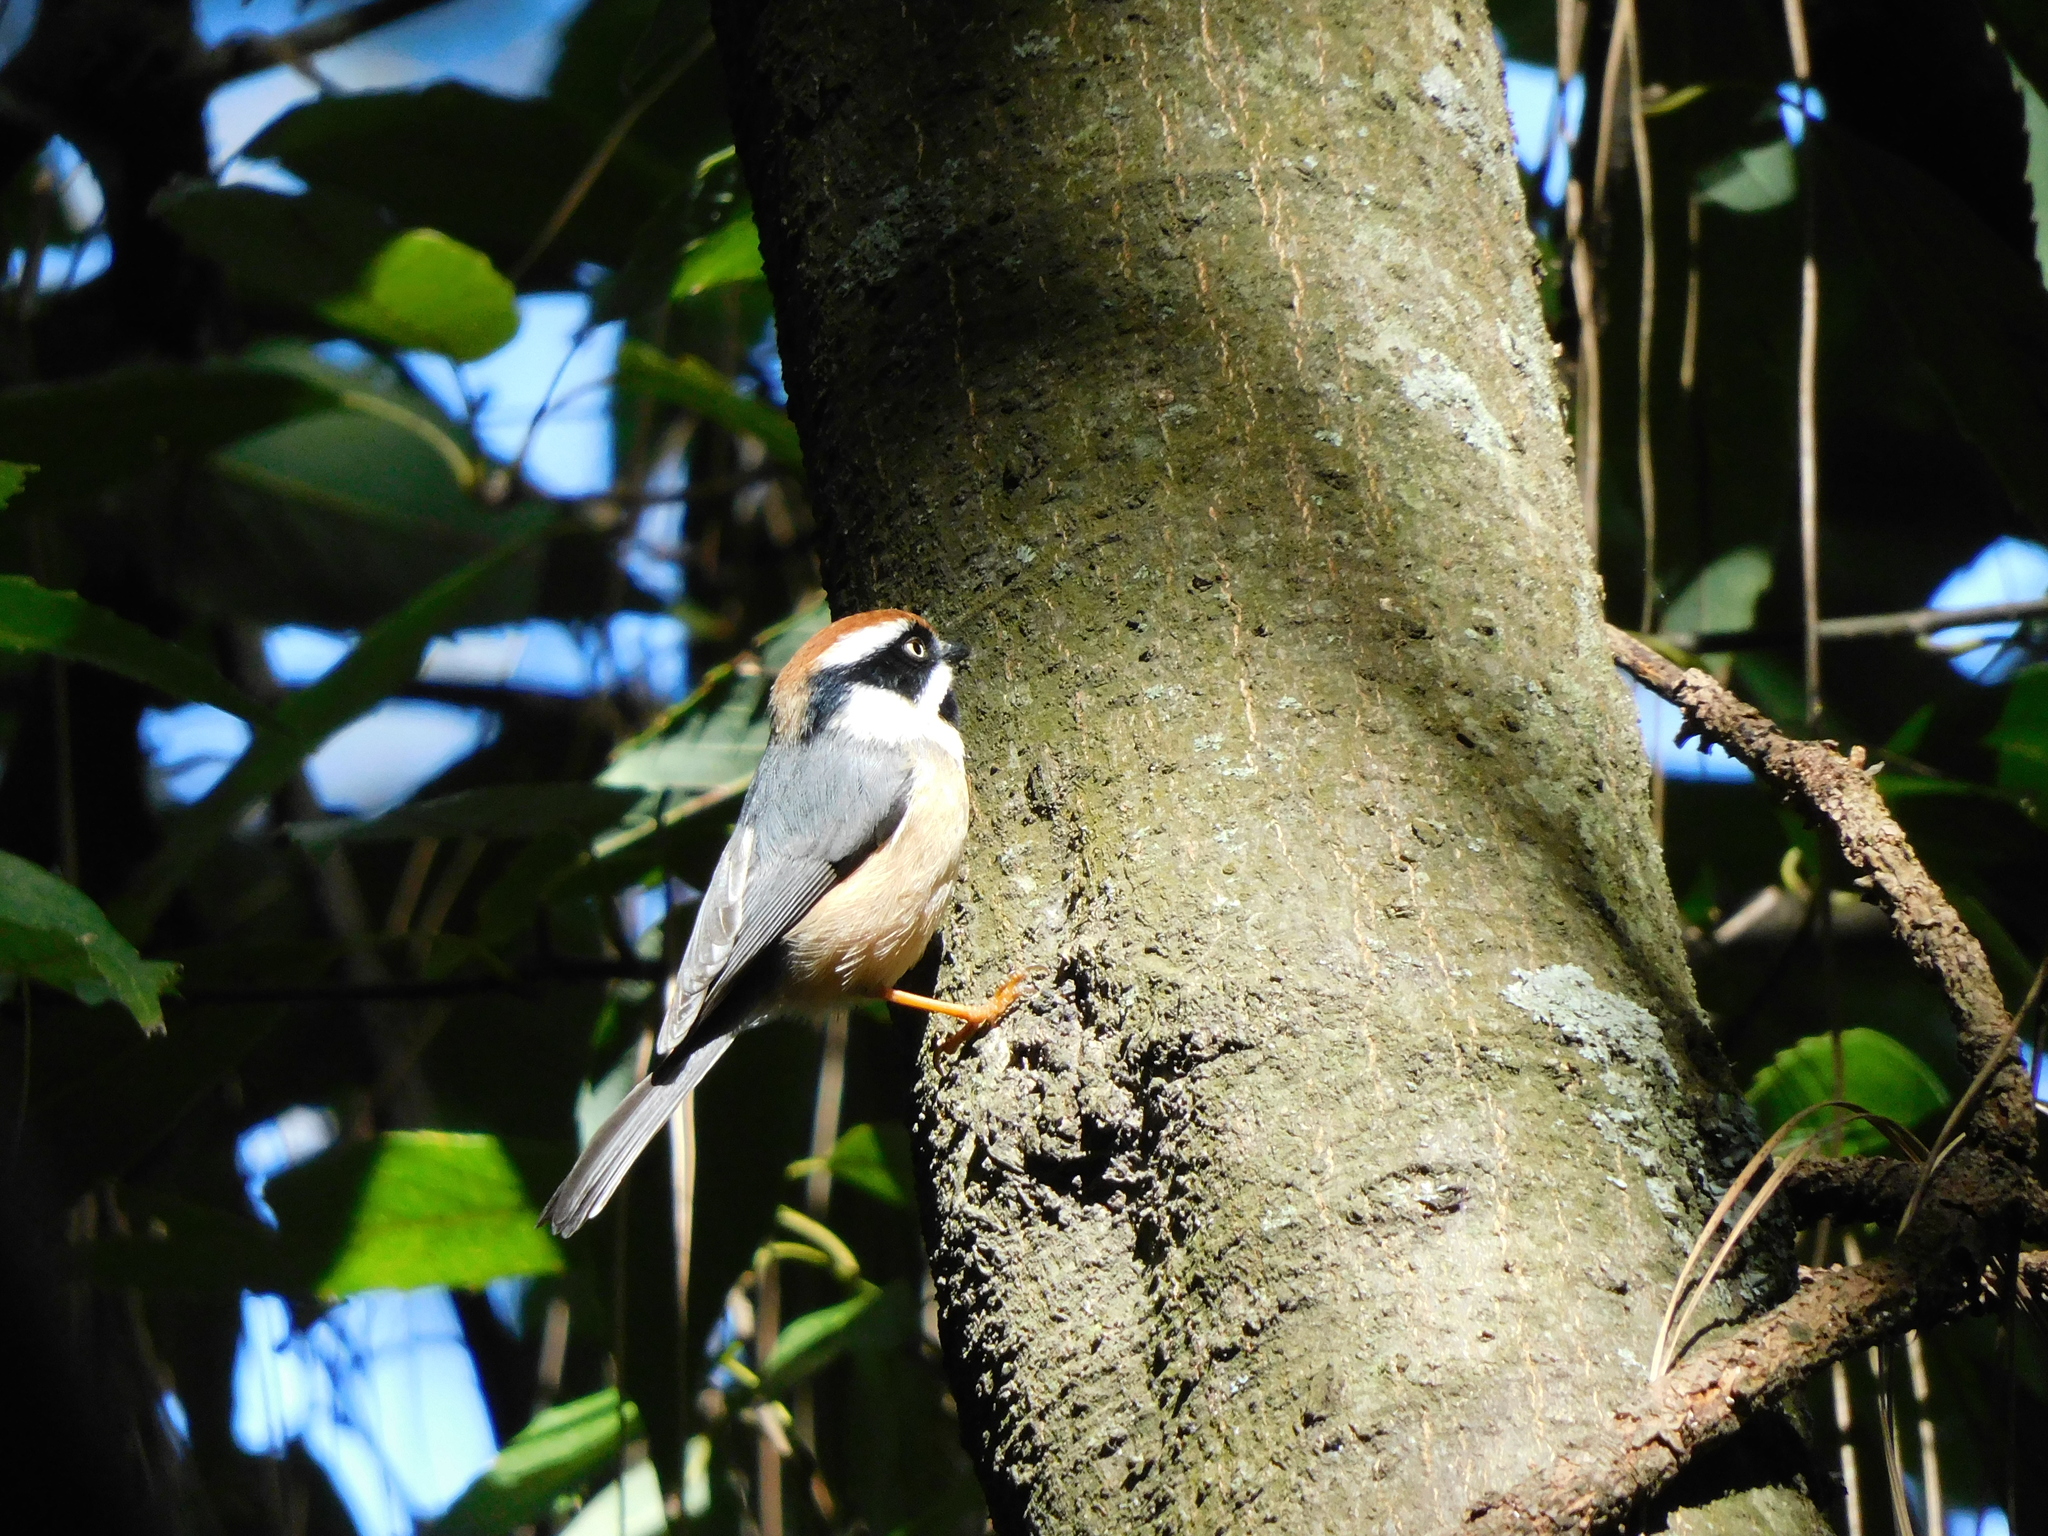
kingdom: Animalia
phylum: Chordata
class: Aves
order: Passeriformes
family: Aegithalidae
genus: Aegithalos
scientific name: Aegithalos concinnus
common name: Black-throated bushtit
